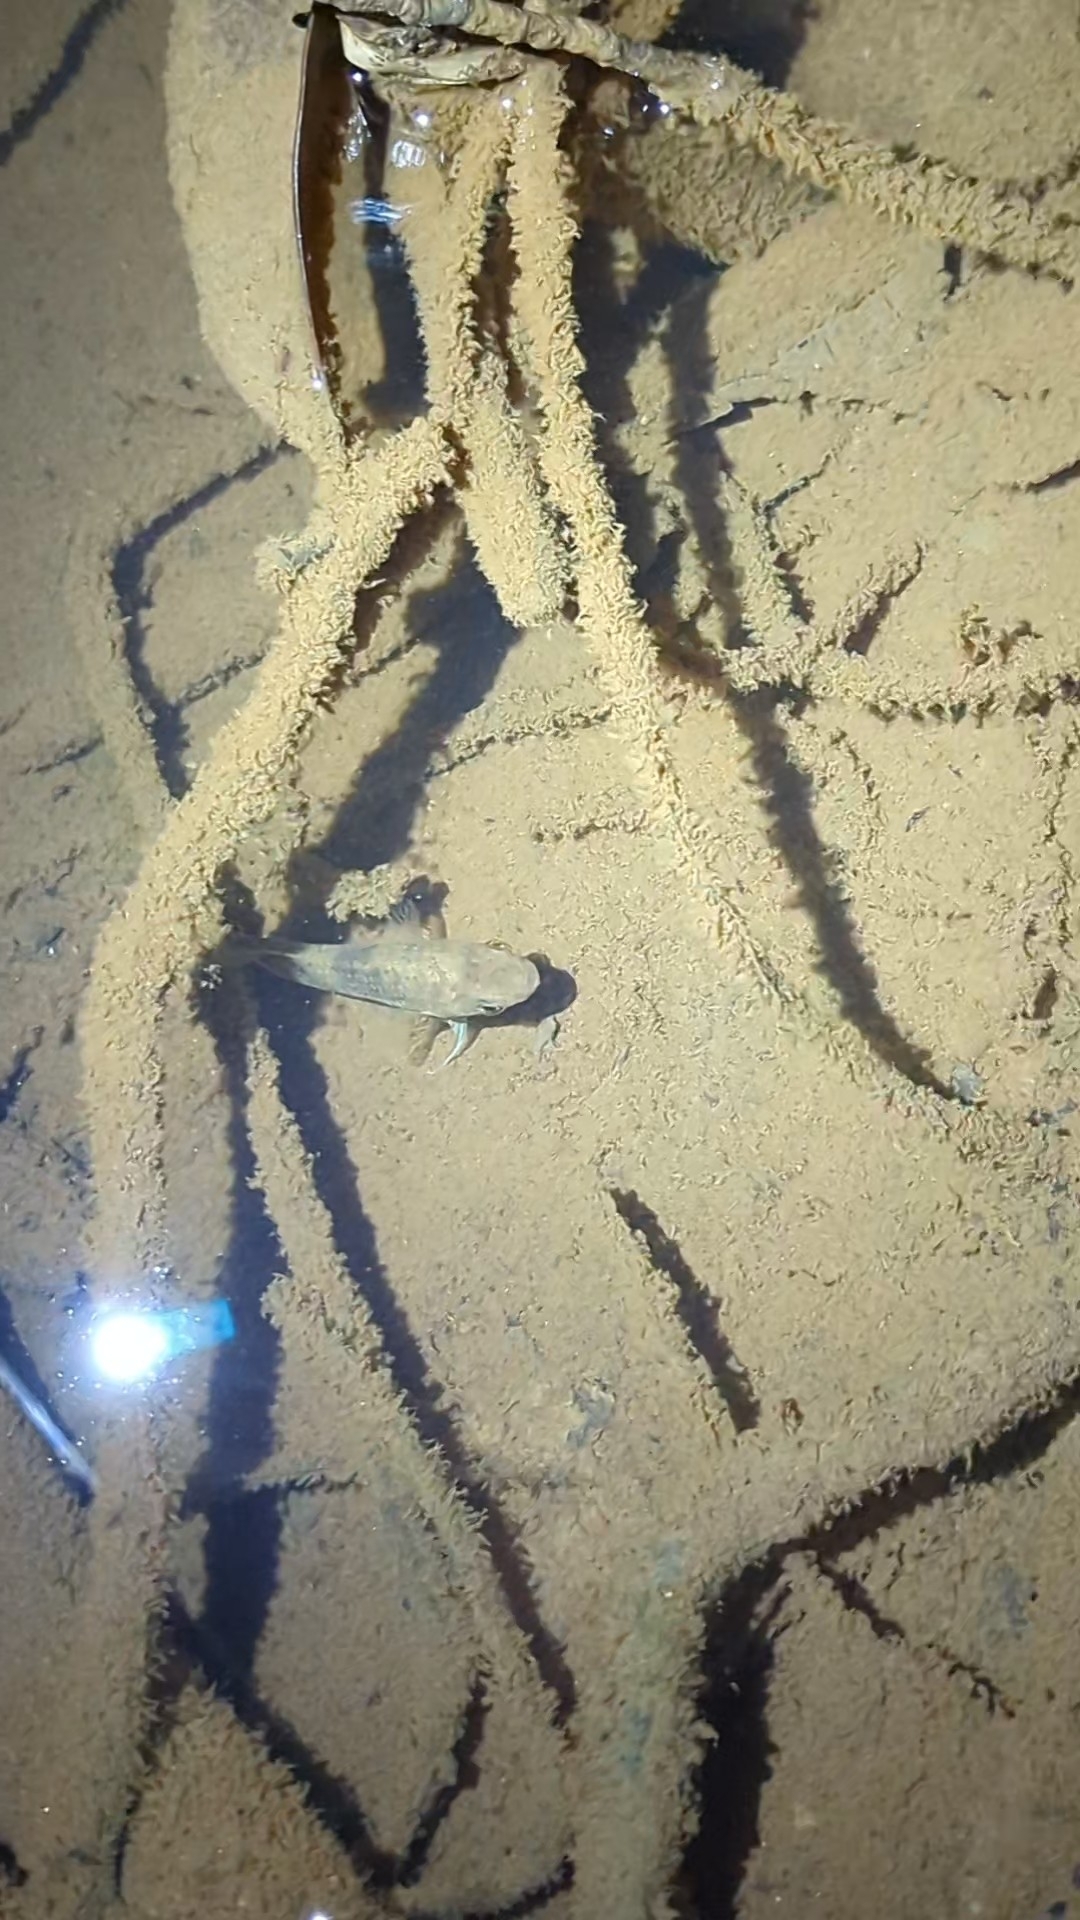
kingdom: Animalia
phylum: Chordata
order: Perciformes
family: Eleotridae
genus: Ophiocara
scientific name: Ophiocara
